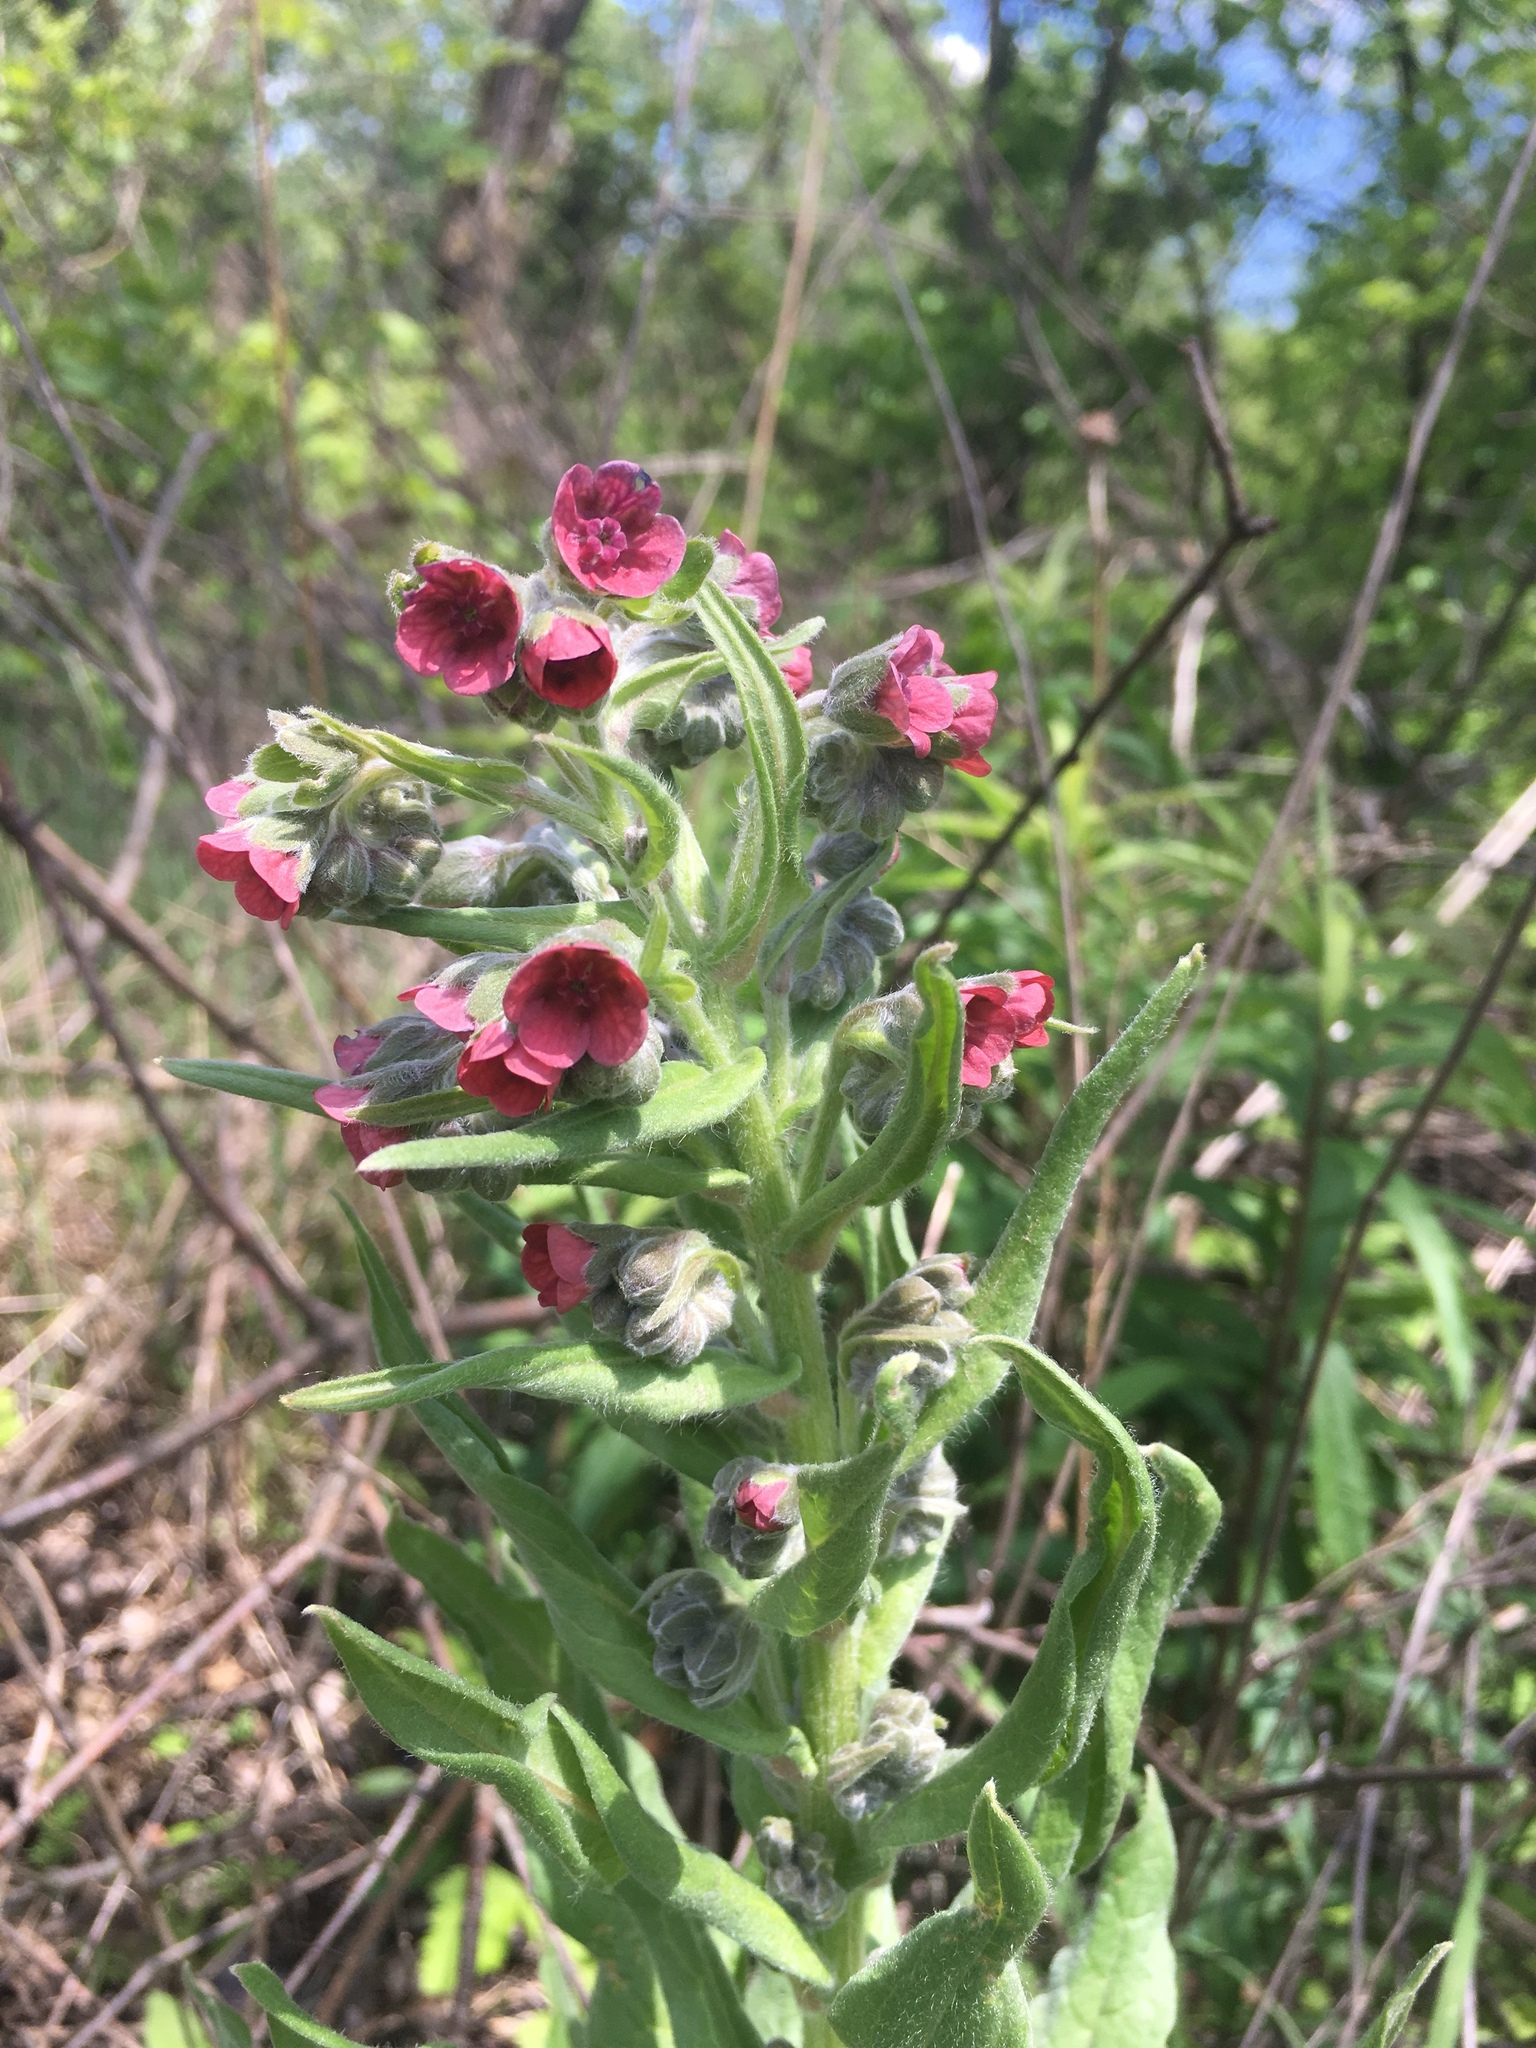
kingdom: Plantae
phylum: Tracheophyta
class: Magnoliopsida
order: Boraginales
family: Boraginaceae
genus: Cynoglossum
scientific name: Cynoglossum officinale
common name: Hound's-tongue
